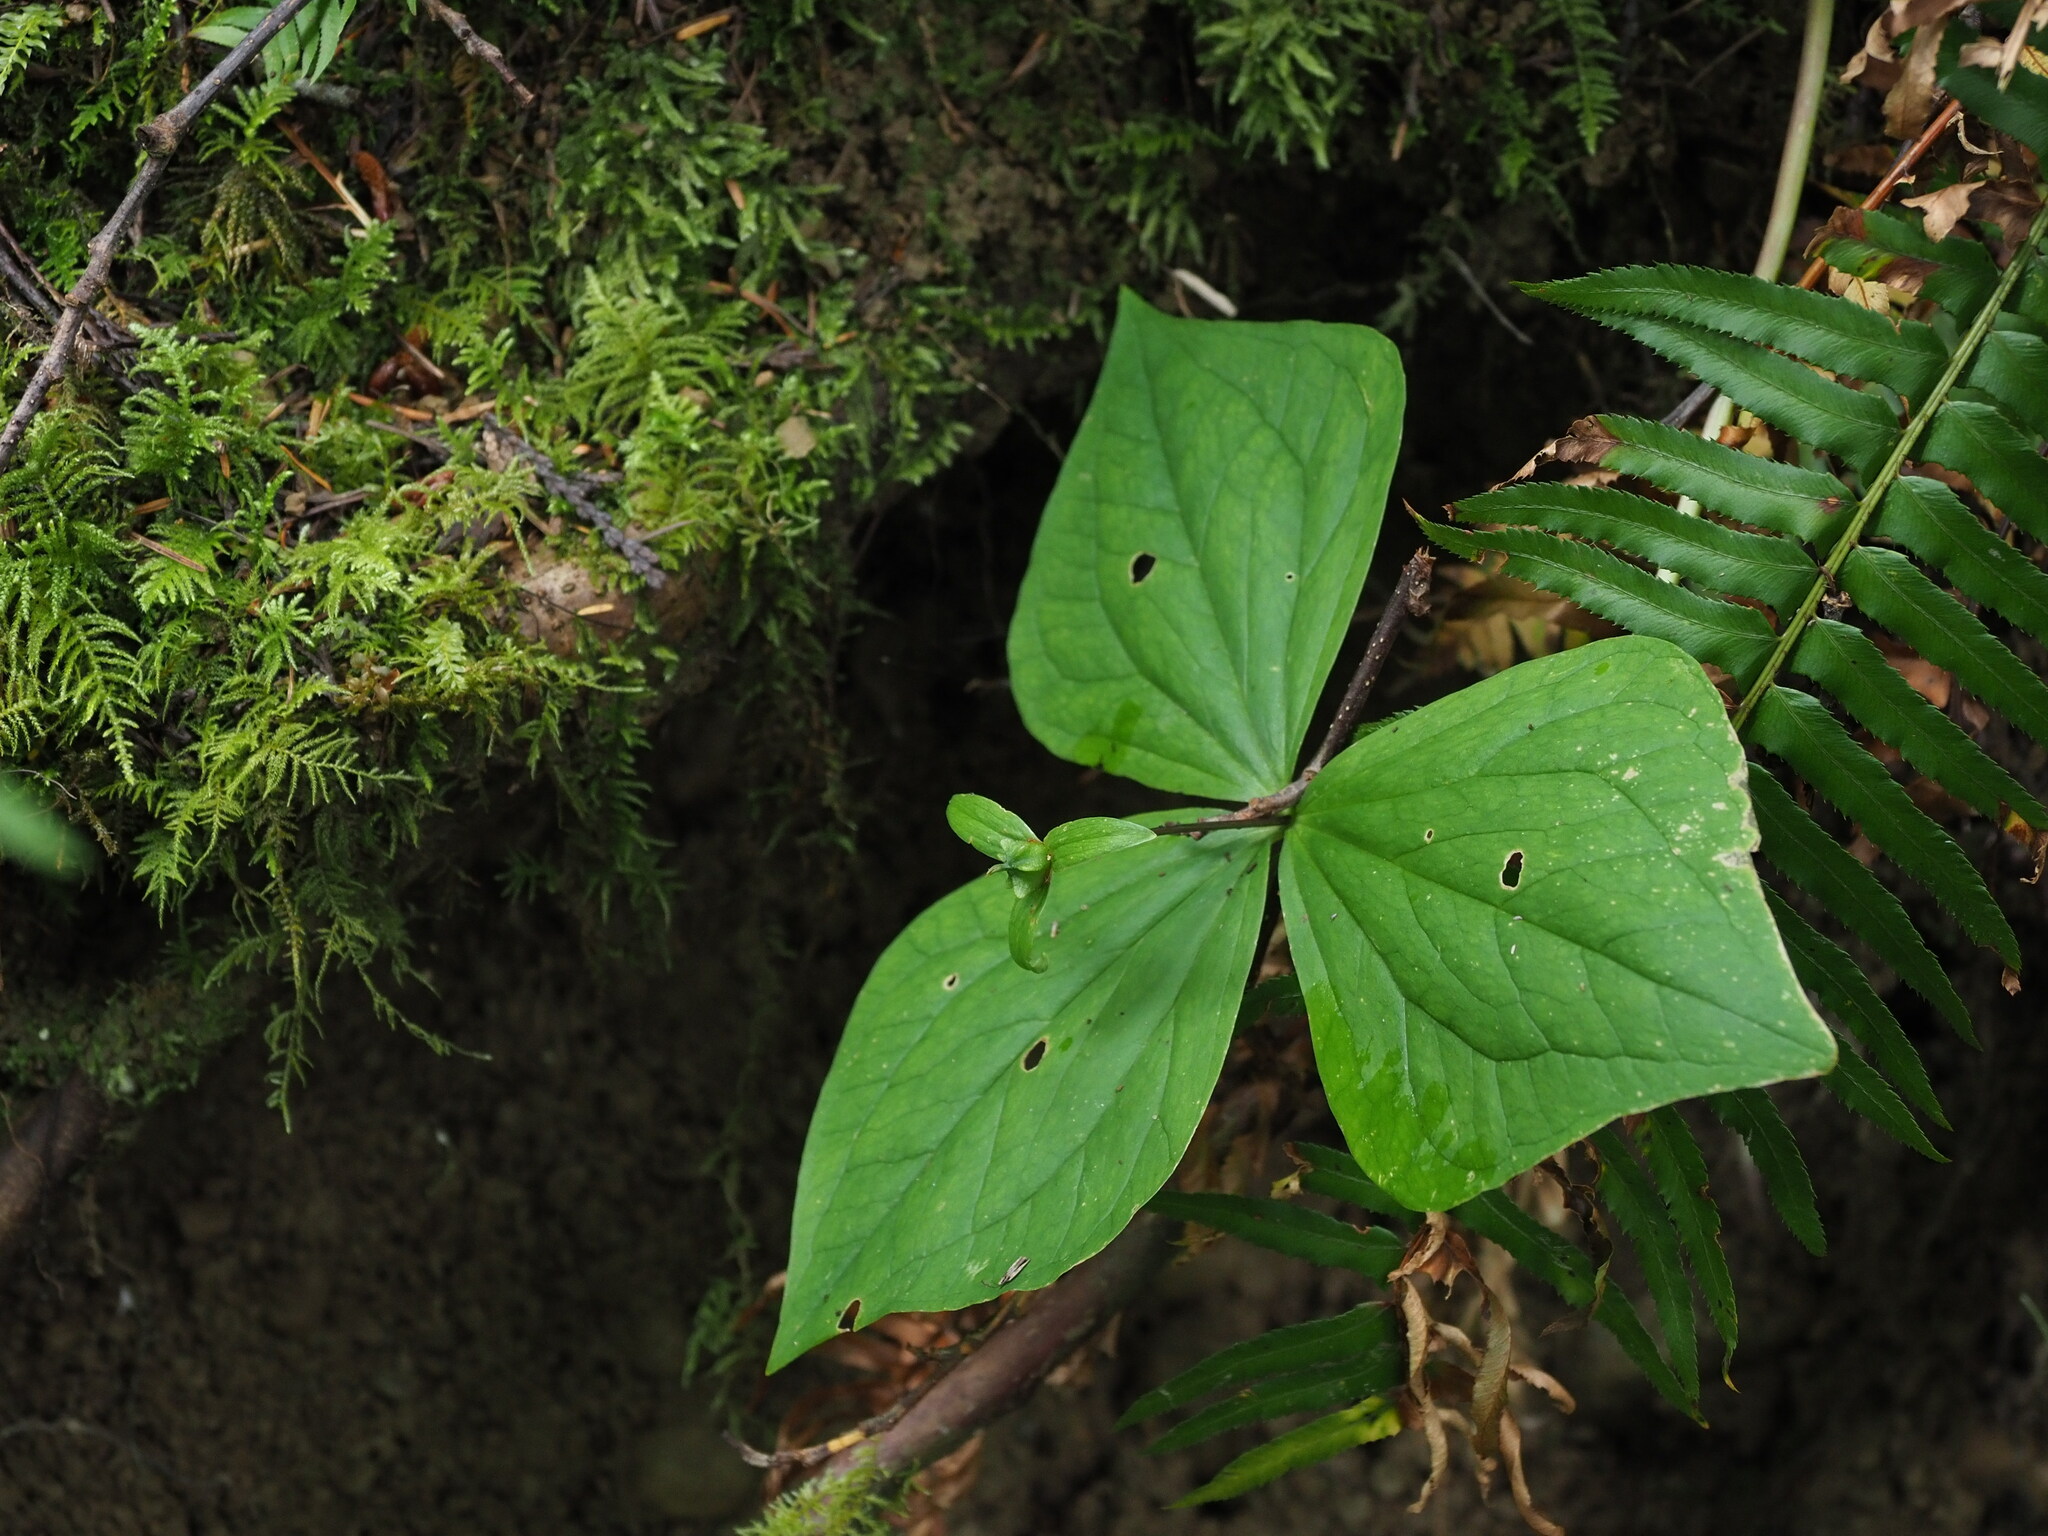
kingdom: Plantae
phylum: Tracheophyta
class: Liliopsida
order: Liliales
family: Melanthiaceae
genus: Trillium
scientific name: Trillium ovatum
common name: Pacific trillium
